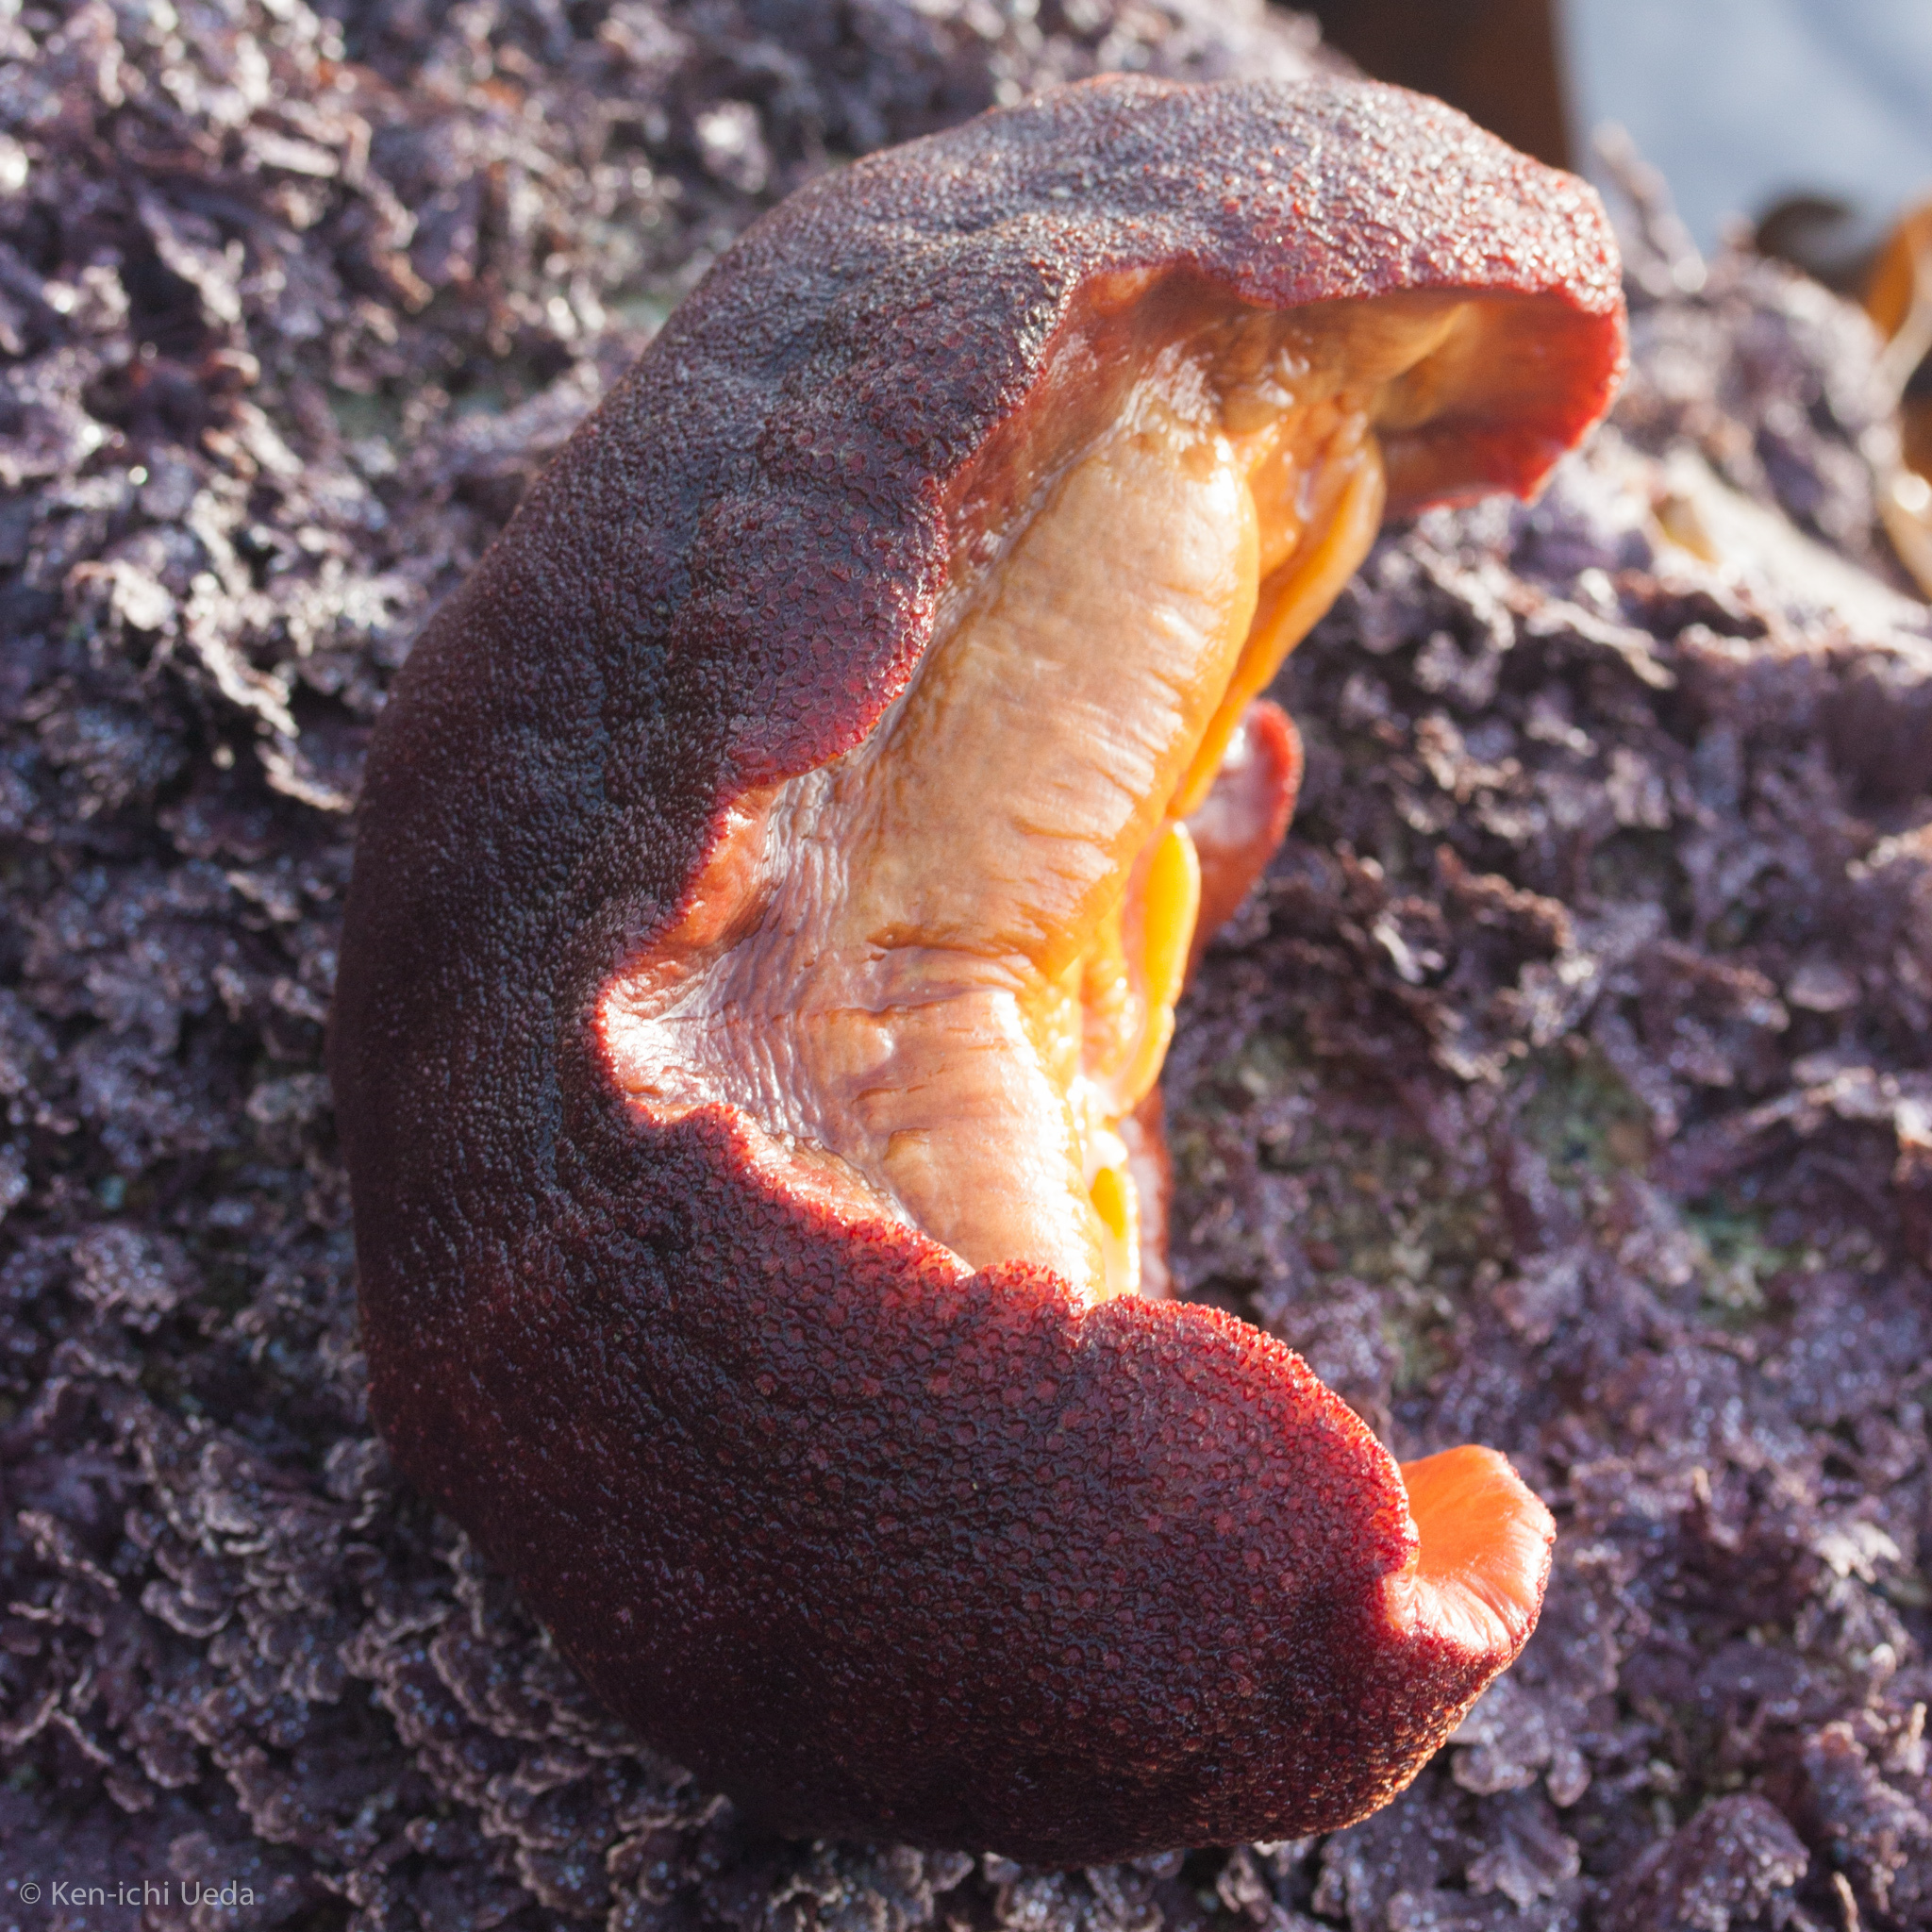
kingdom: Animalia
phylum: Mollusca
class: Polyplacophora
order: Chitonida
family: Acanthochitonidae
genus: Cryptochiton
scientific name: Cryptochiton stelleri
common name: Giant pacific chiton
